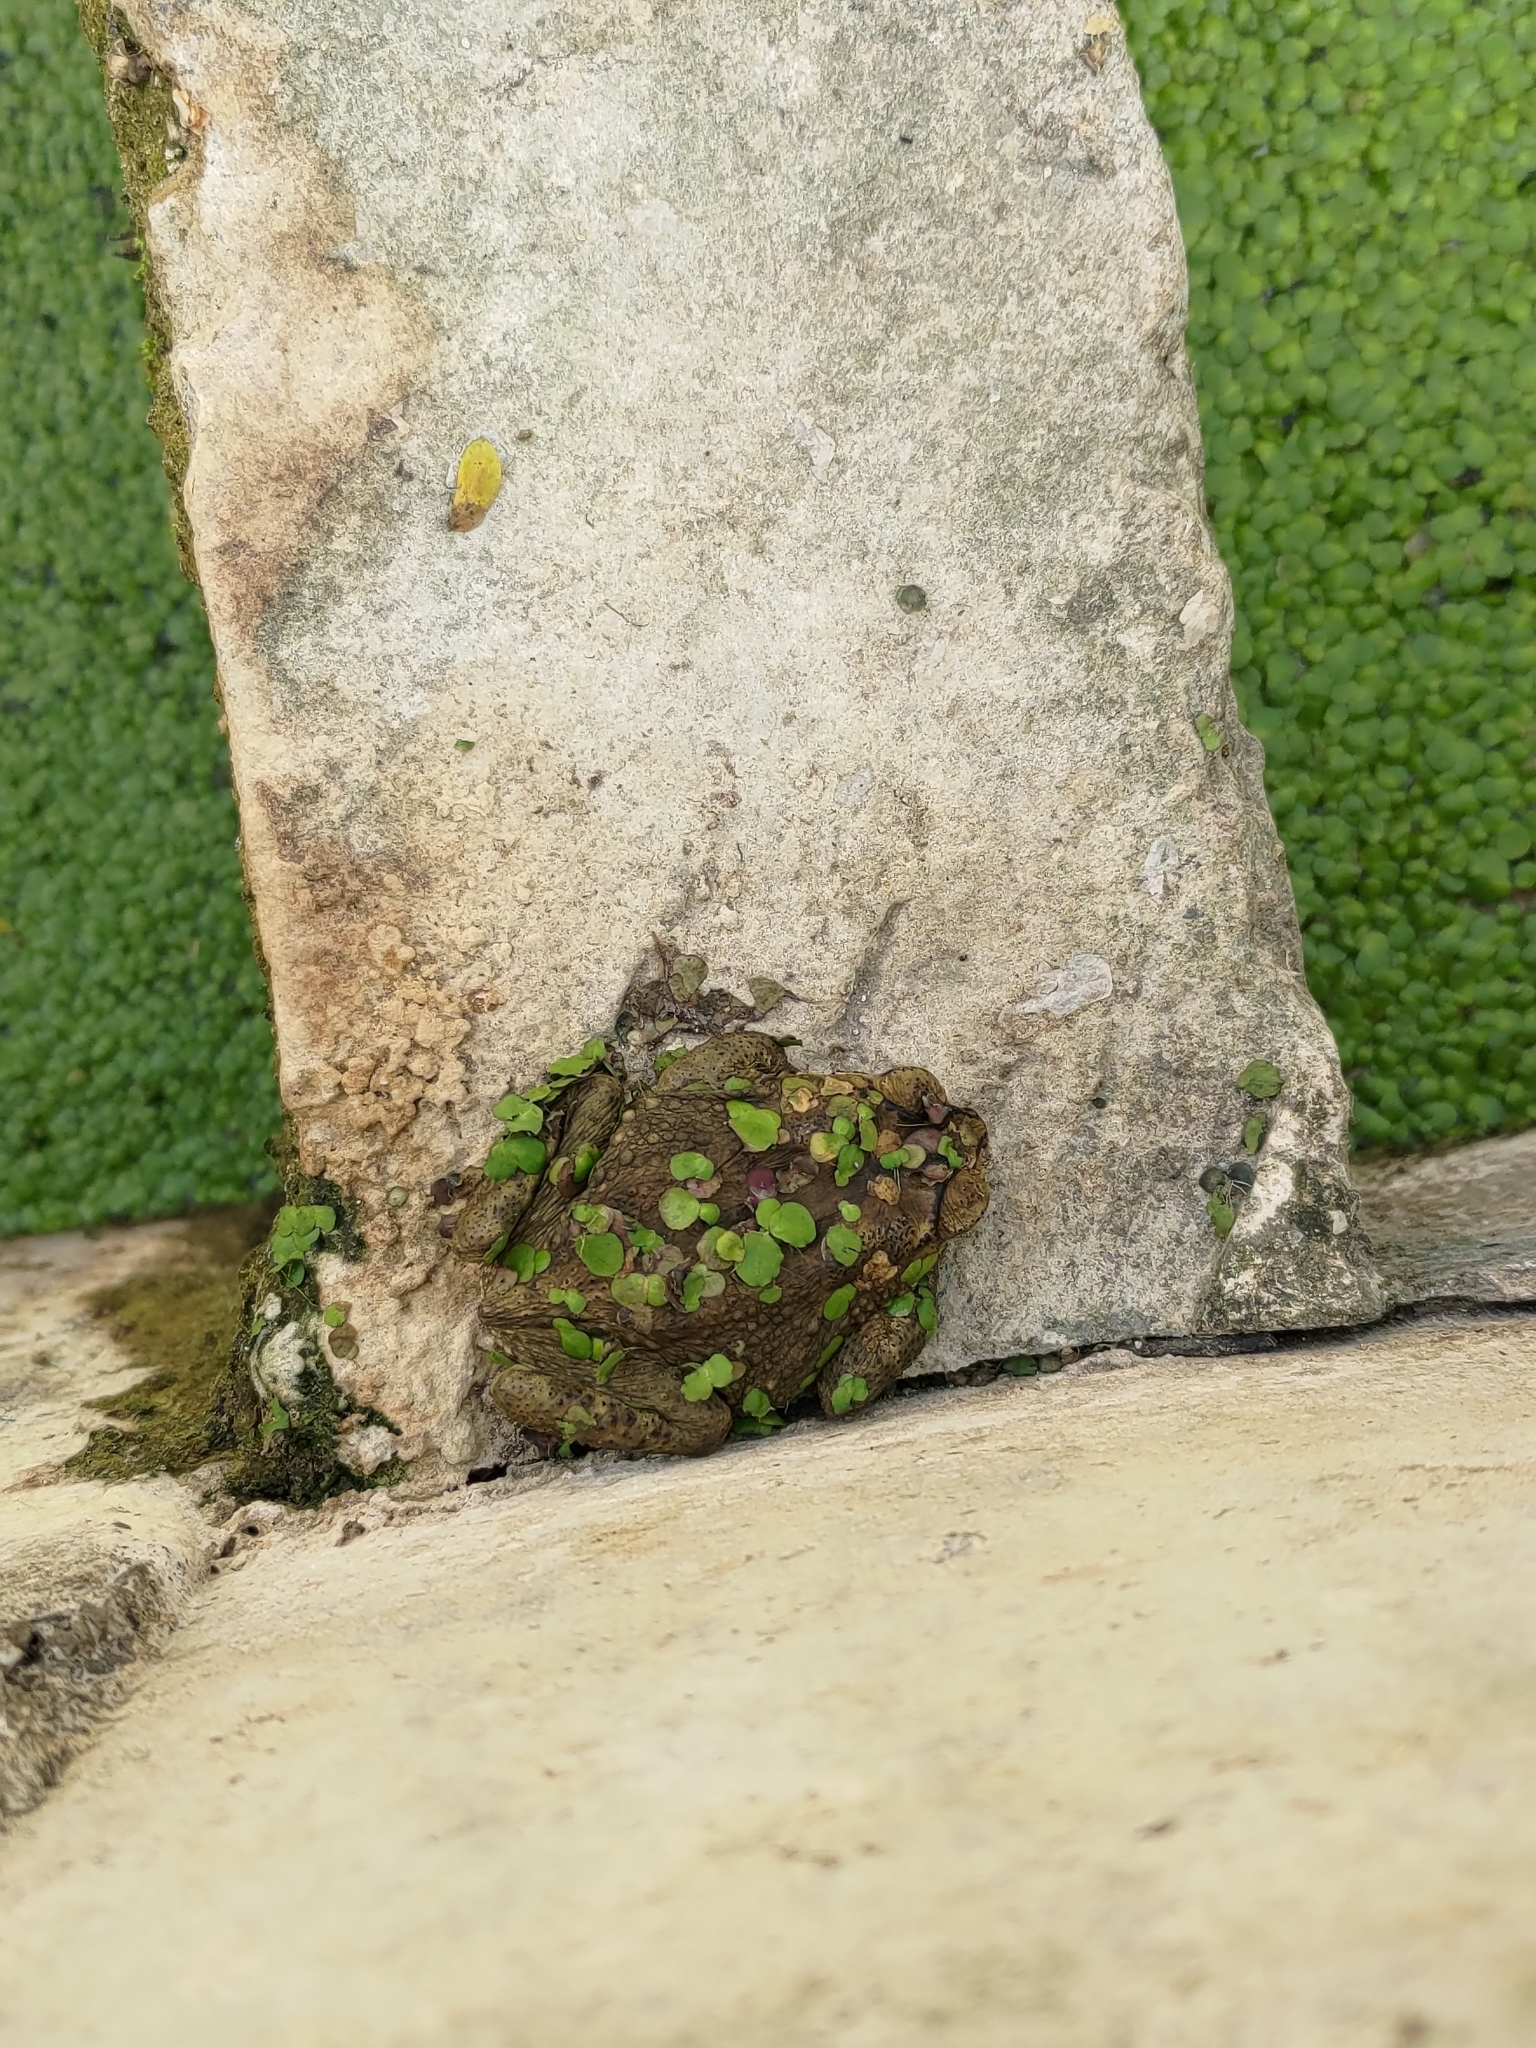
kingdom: Animalia
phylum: Chordata
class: Amphibia
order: Anura
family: Bufonidae
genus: Duttaphrynus
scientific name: Duttaphrynus melanostictus
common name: Common sunda toad
